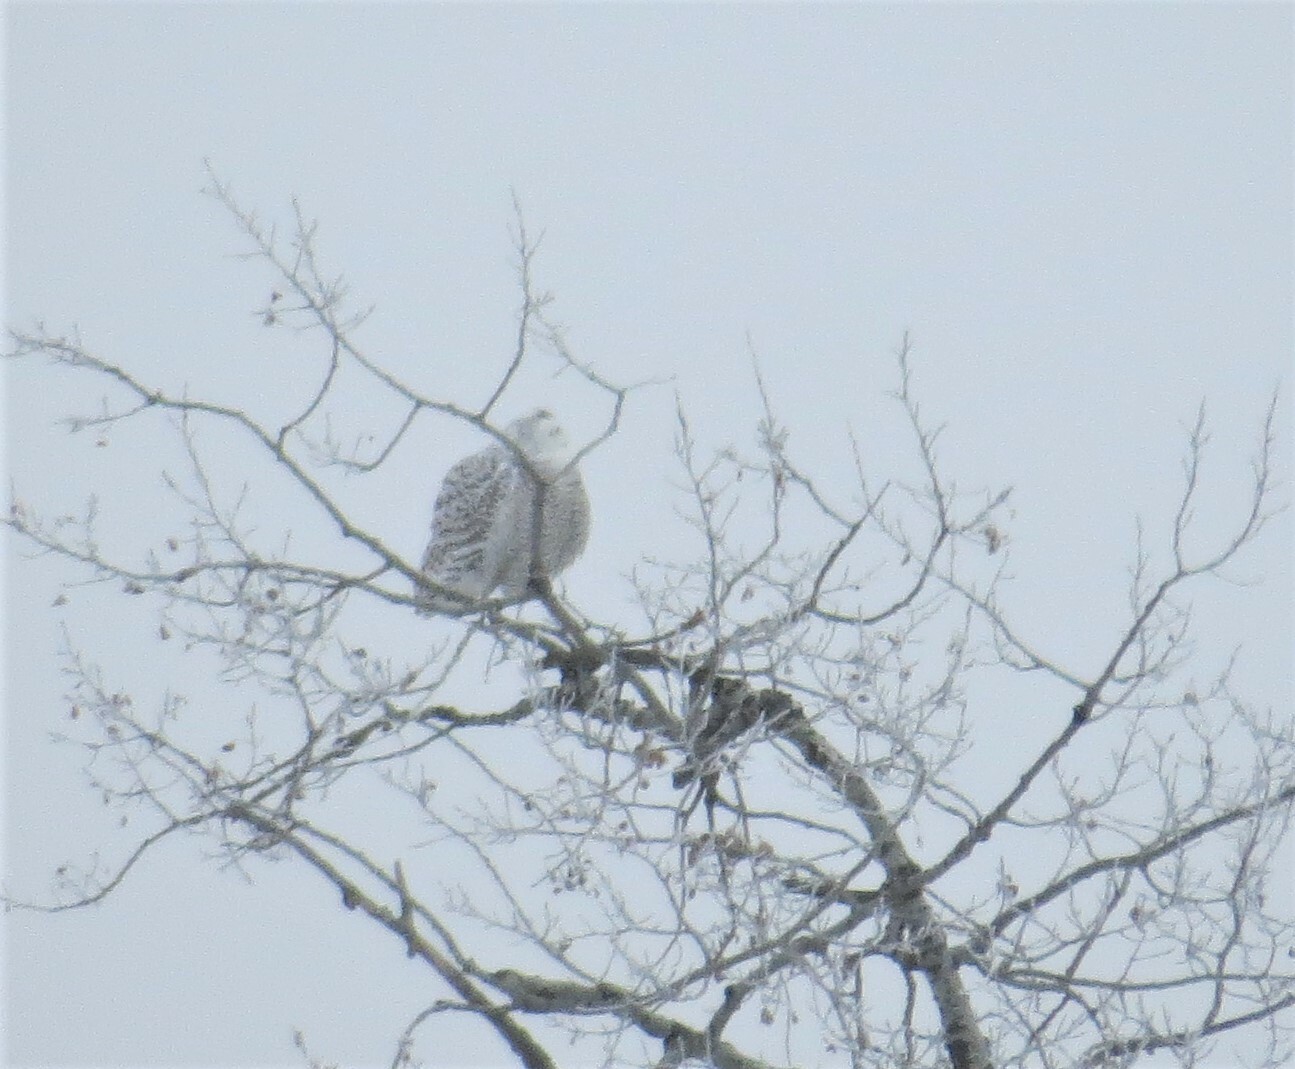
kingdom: Animalia
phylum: Chordata
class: Aves
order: Strigiformes
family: Strigidae
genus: Bubo
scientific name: Bubo scandiacus
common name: Snowy owl
